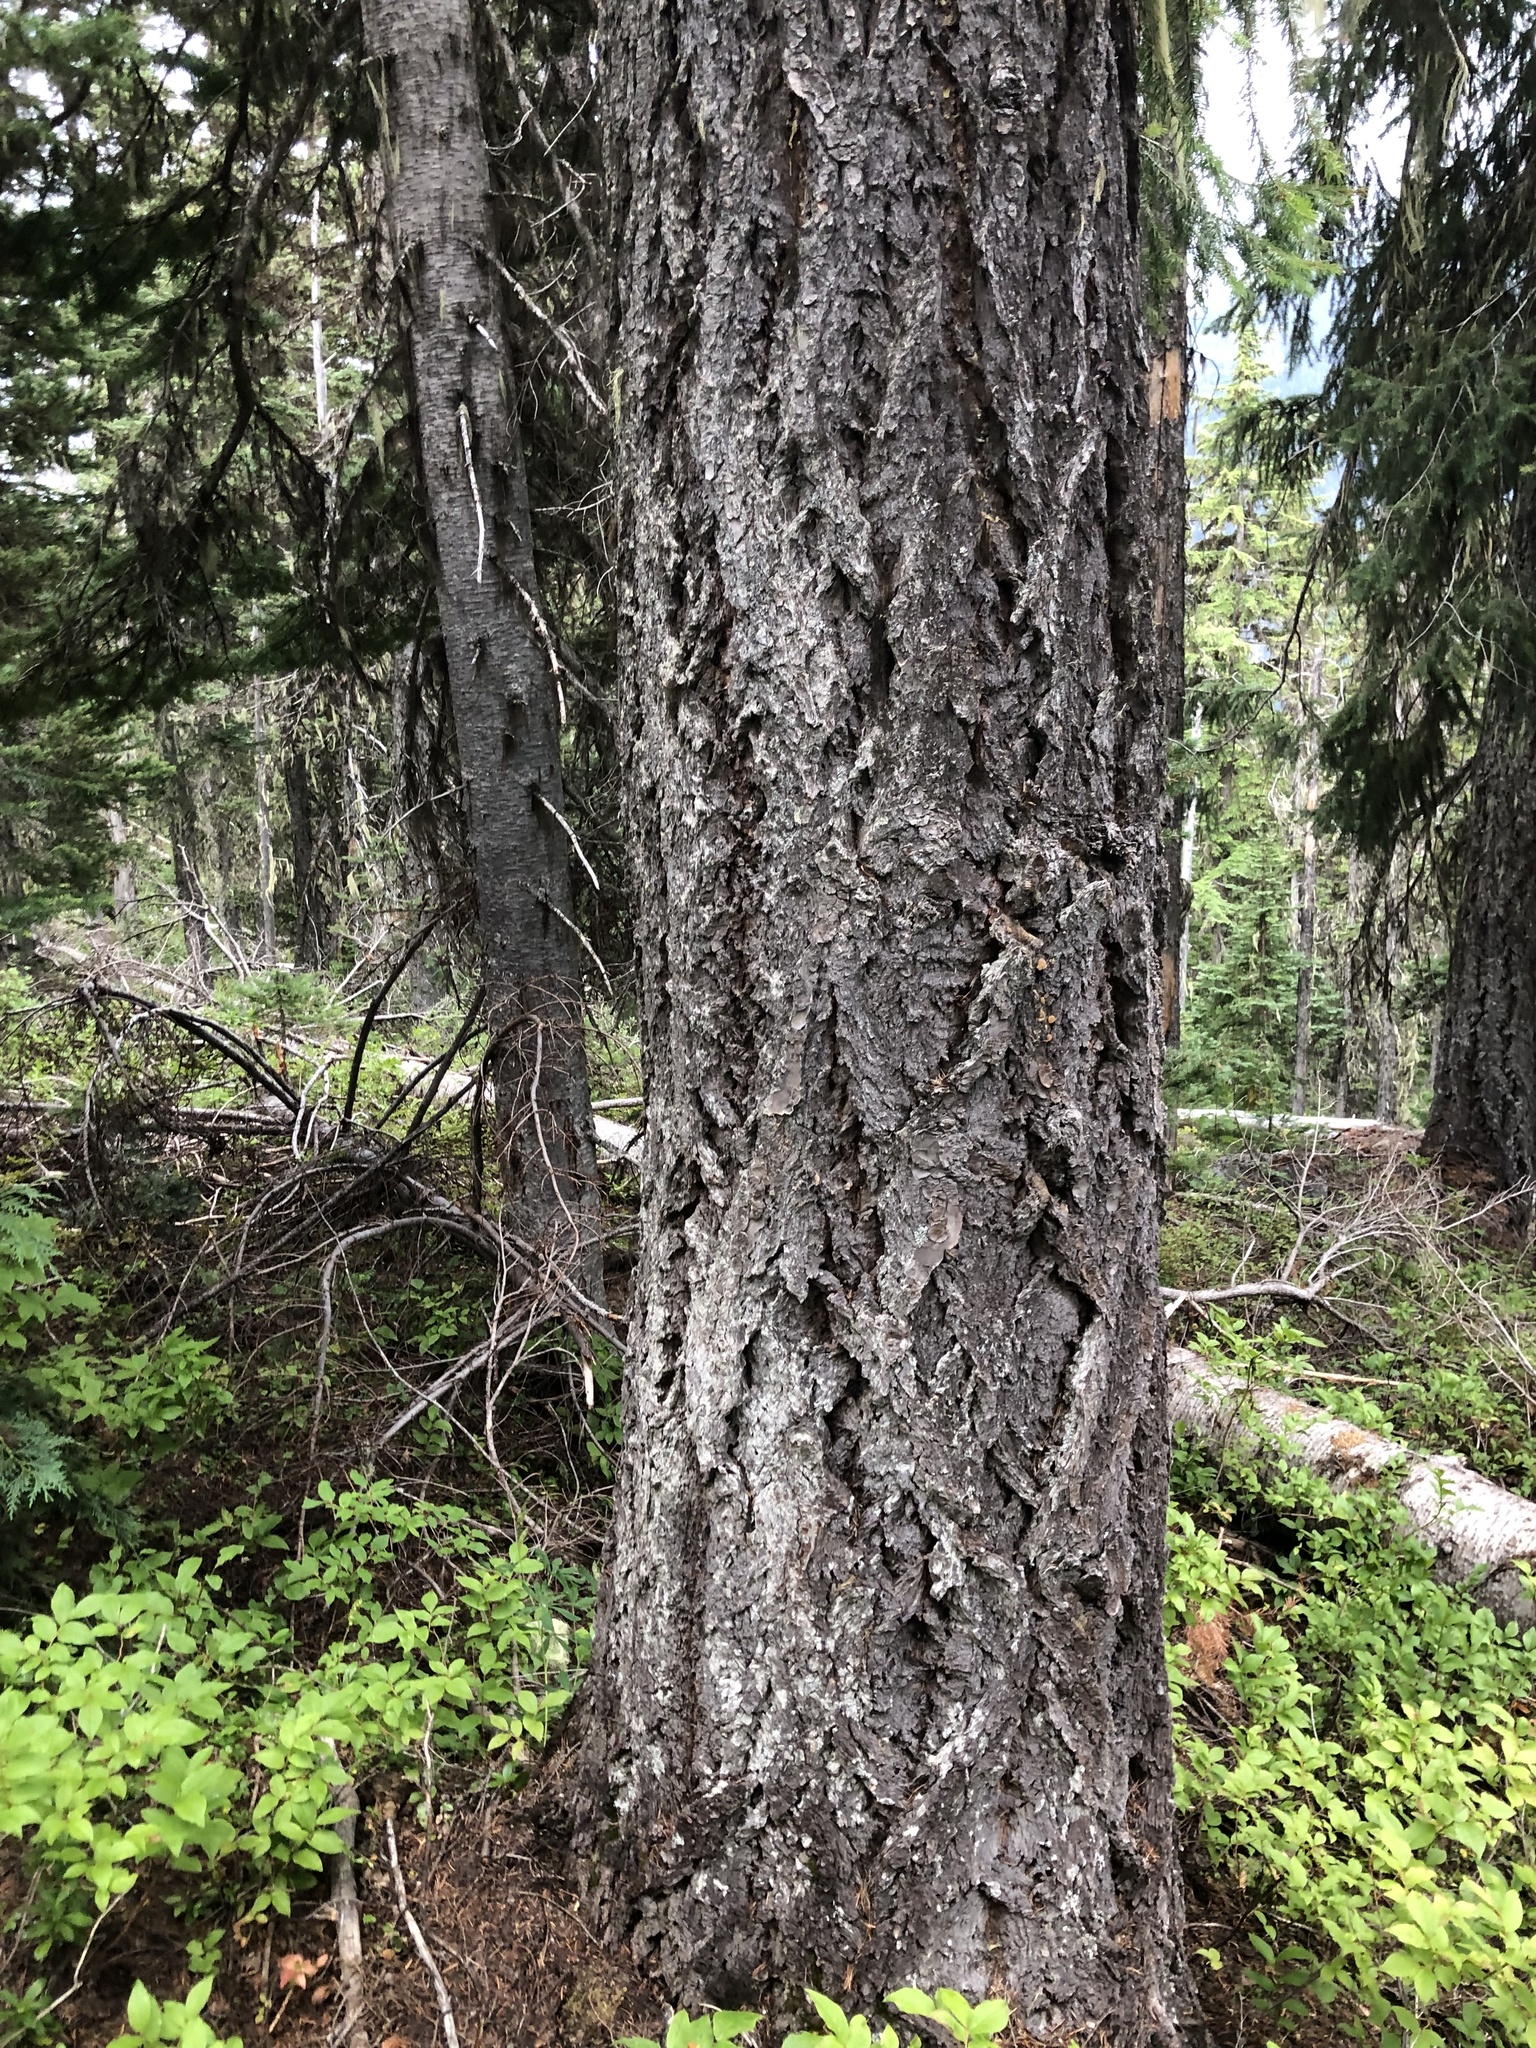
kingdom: Plantae
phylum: Tracheophyta
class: Pinopsida
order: Pinales
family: Pinaceae
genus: Pseudotsuga
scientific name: Pseudotsuga menziesii
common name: Douglas fir
